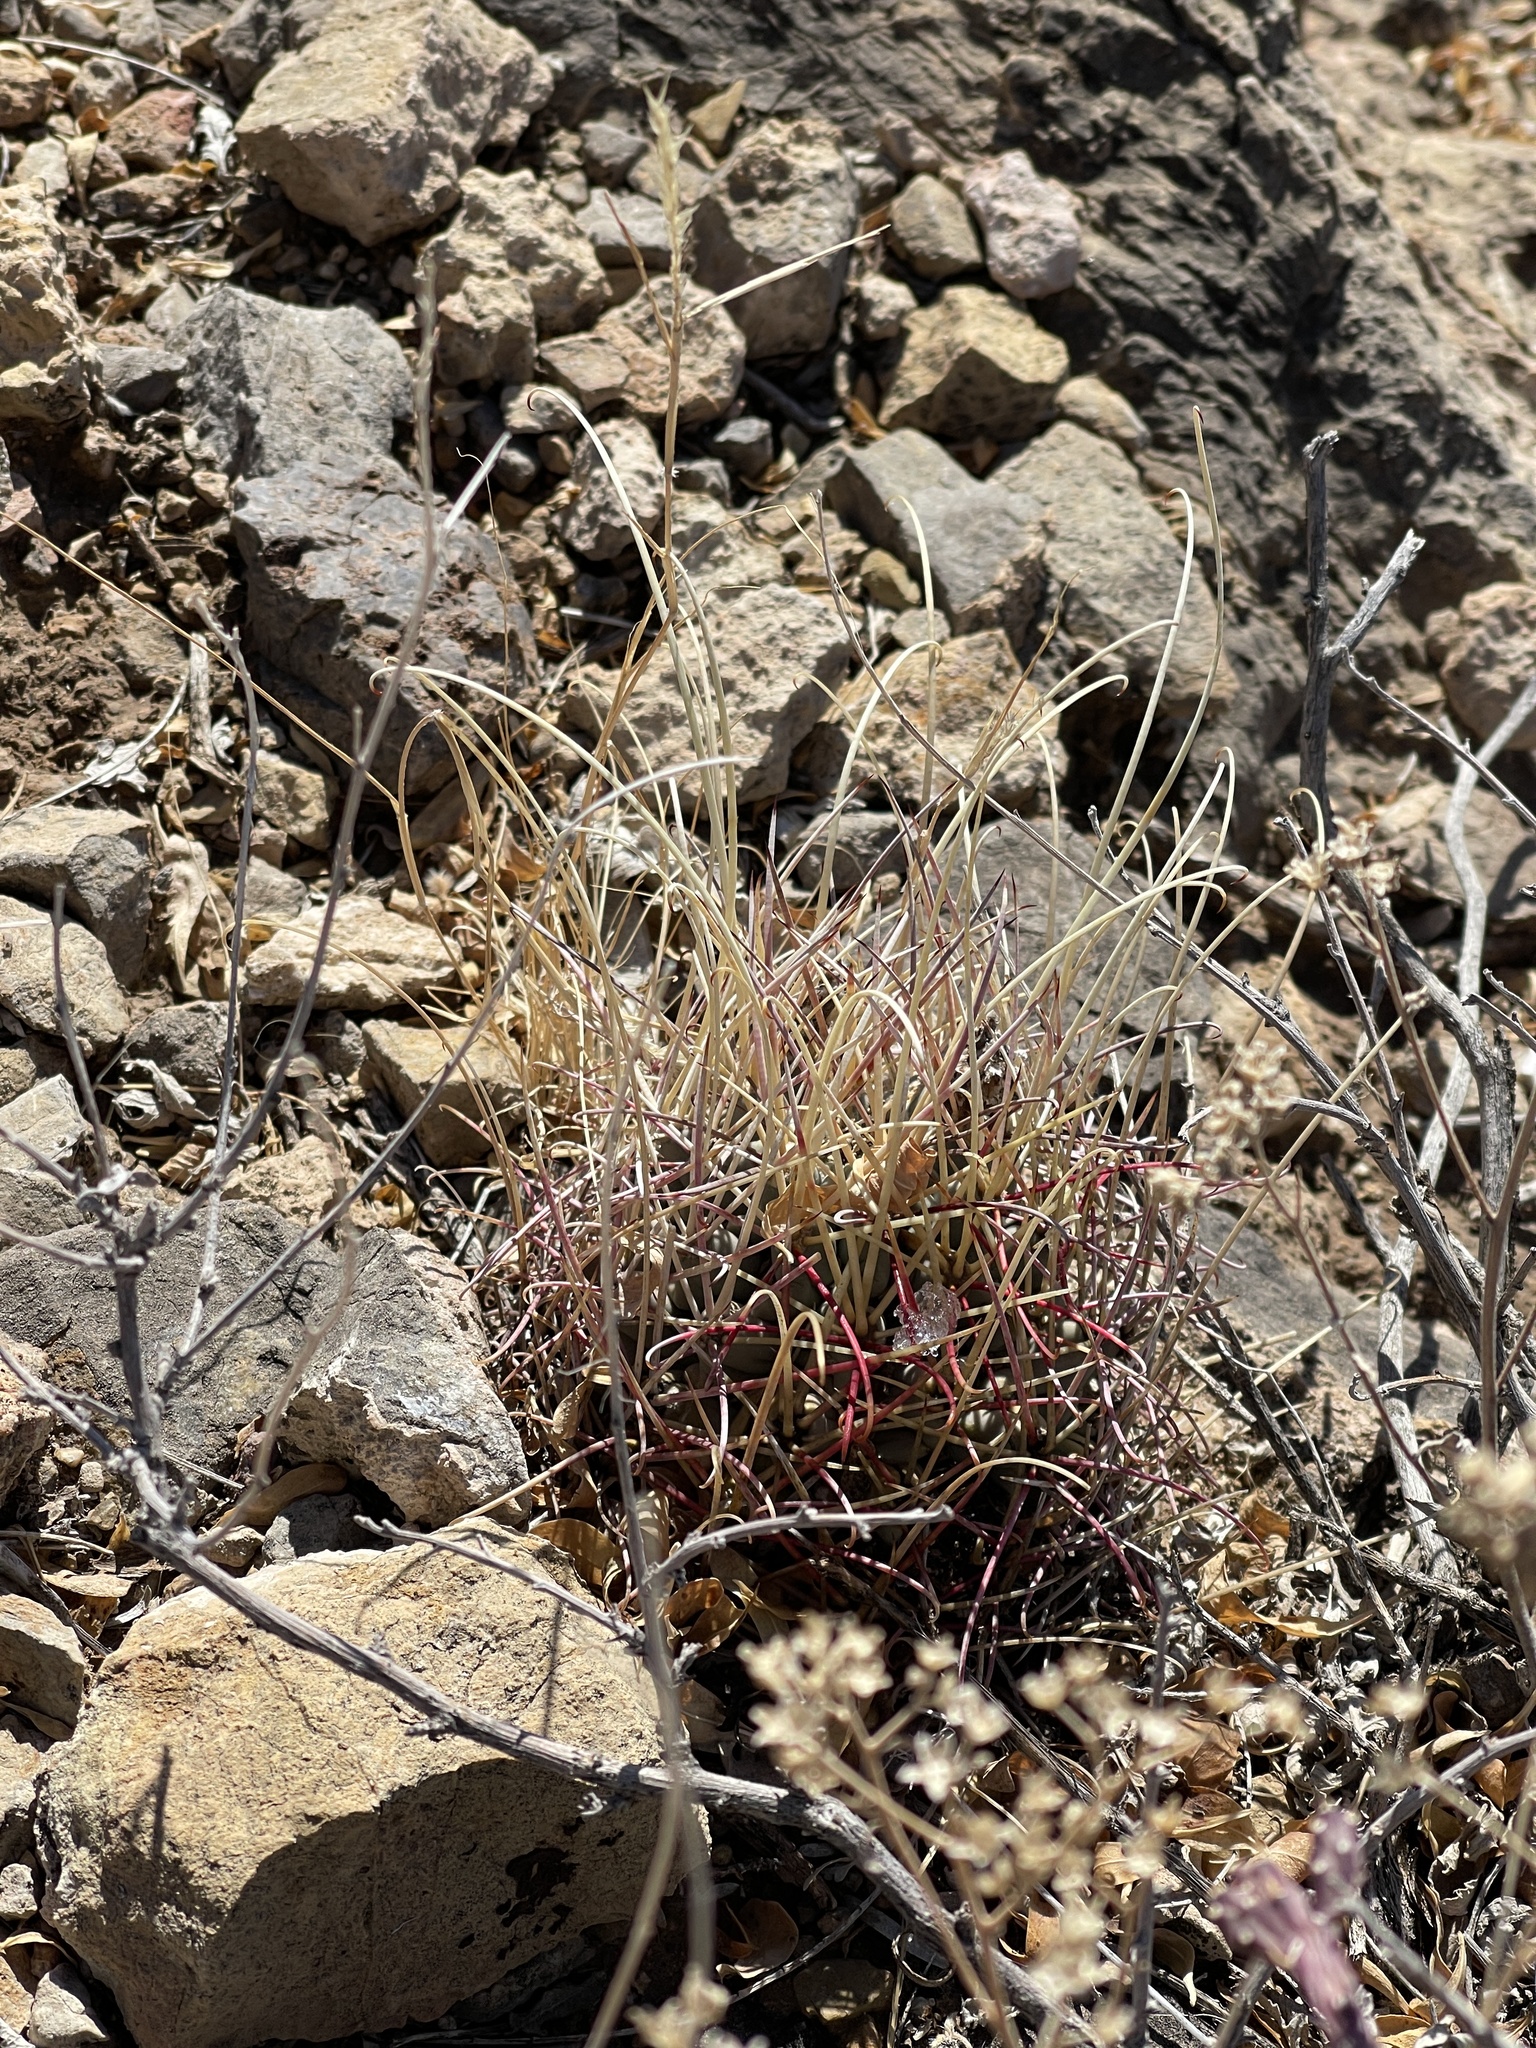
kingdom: Plantae
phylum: Tracheophyta
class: Magnoliopsida
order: Caryophyllales
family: Cactaceae
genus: Ferocactus
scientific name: Ferocactus uncinatus
